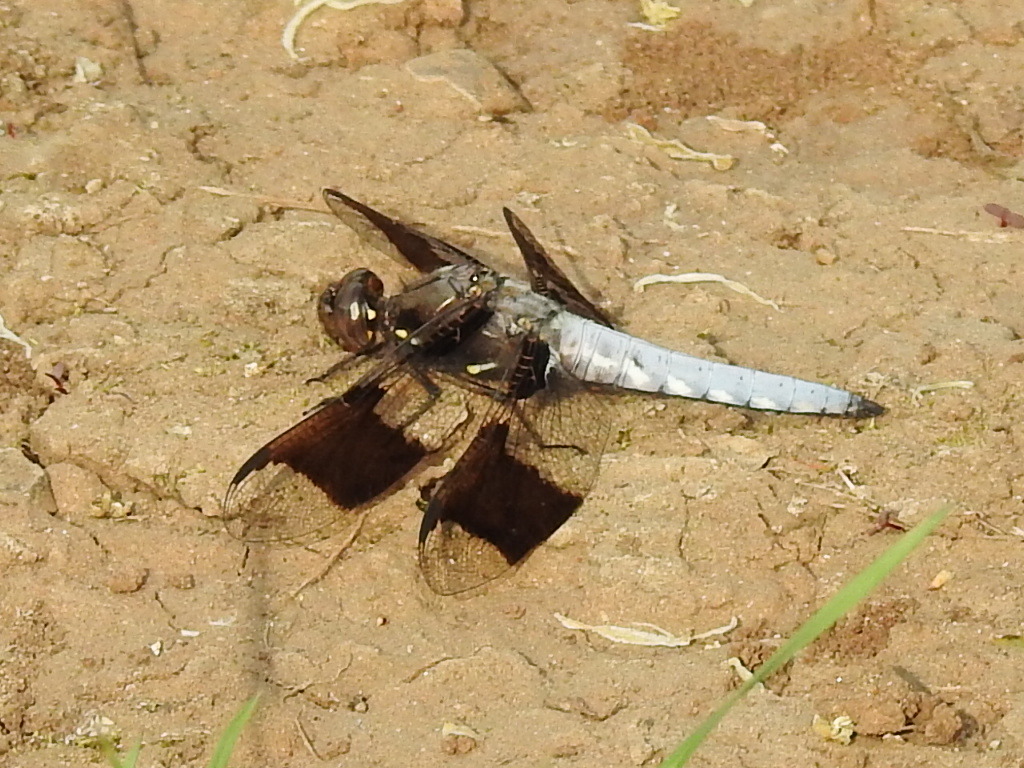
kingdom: Animalia
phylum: Arthropoda
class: Insecta
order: Odonata
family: Libellulidae
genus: Plathemis
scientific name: Plathemis lydia
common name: Common whitetail
